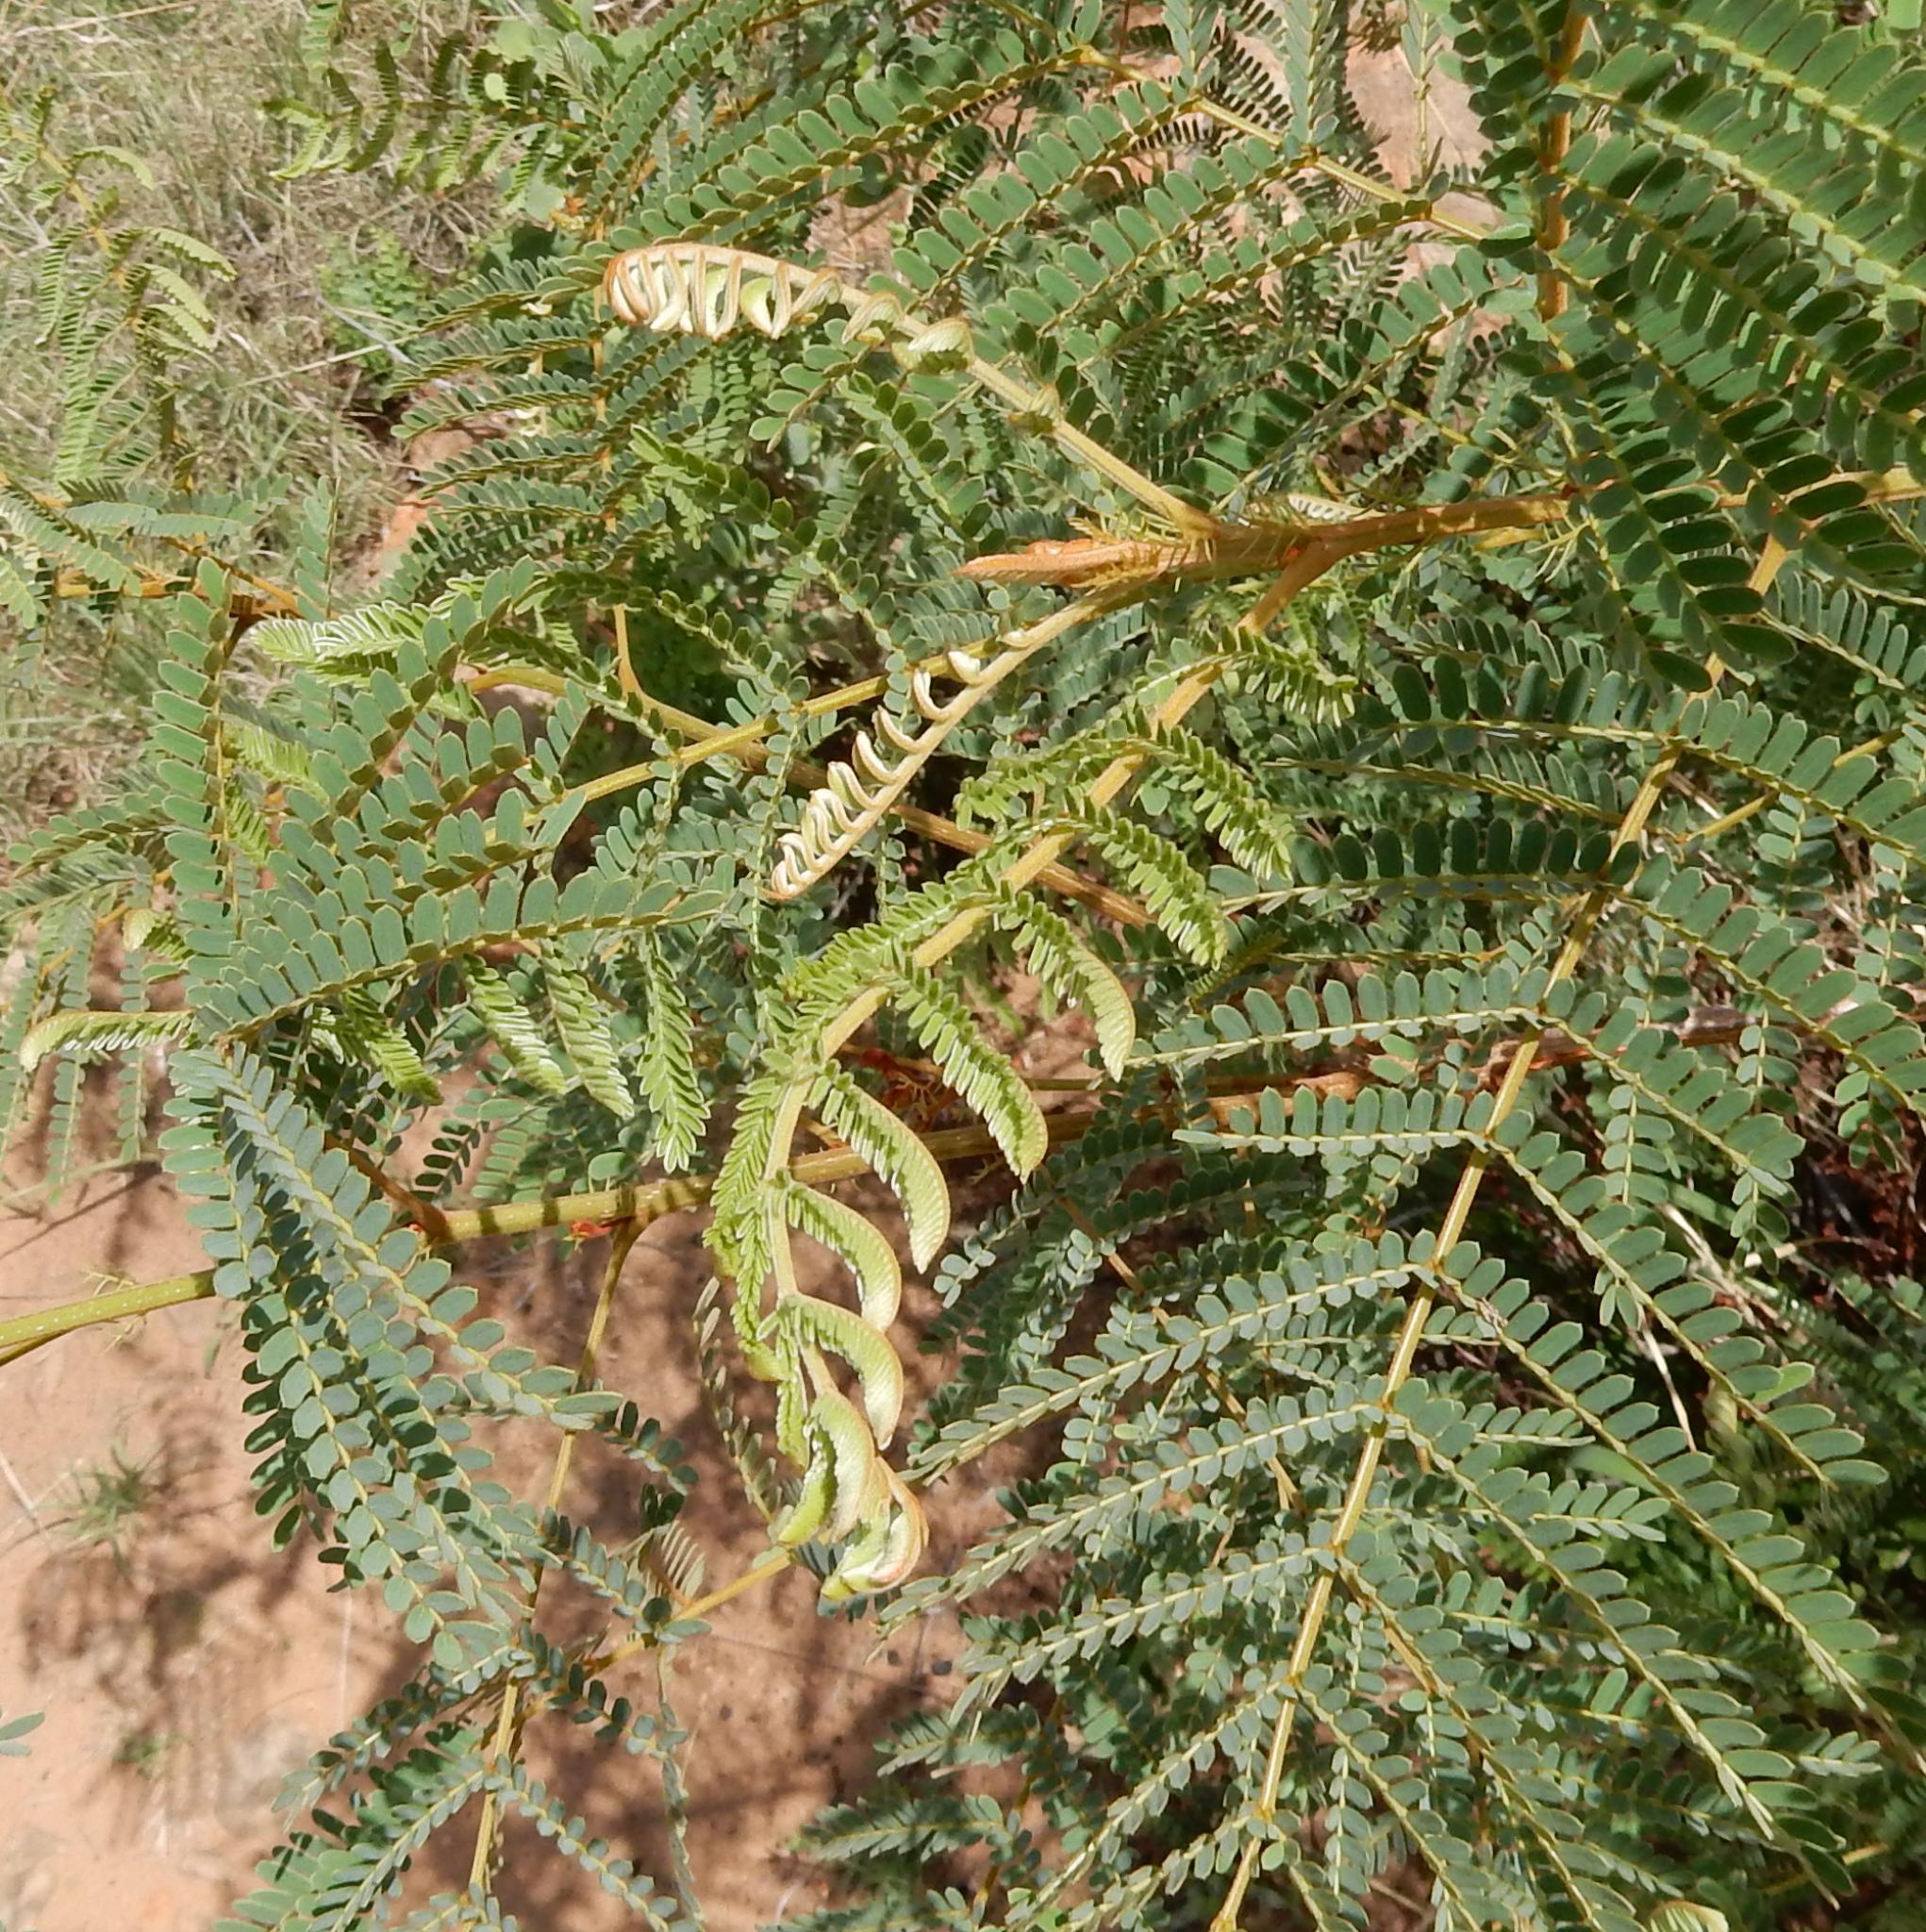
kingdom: Plantae
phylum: Tracheophyta
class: Magnoliopsida
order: Fabales
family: Fabaceae
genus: Peltophorum
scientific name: Peltophorum africanum
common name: African black wattle
